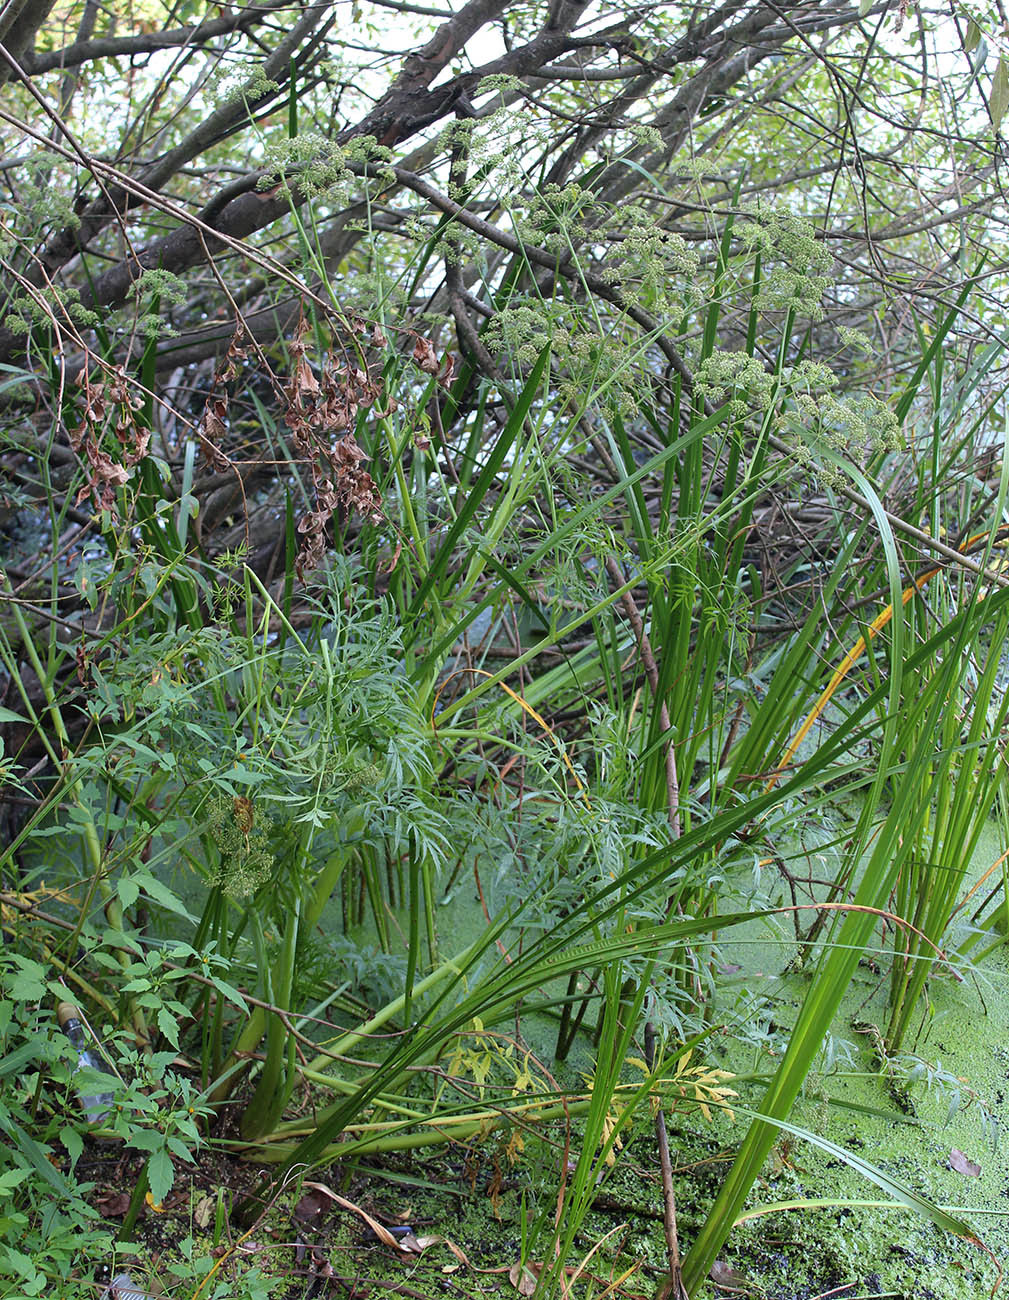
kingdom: Plantae
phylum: Tracheophyta
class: Magnoliopsida
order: Apiales
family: Apiaceae
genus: Cicuta
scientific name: Cicuta virosa
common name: Cowbane
